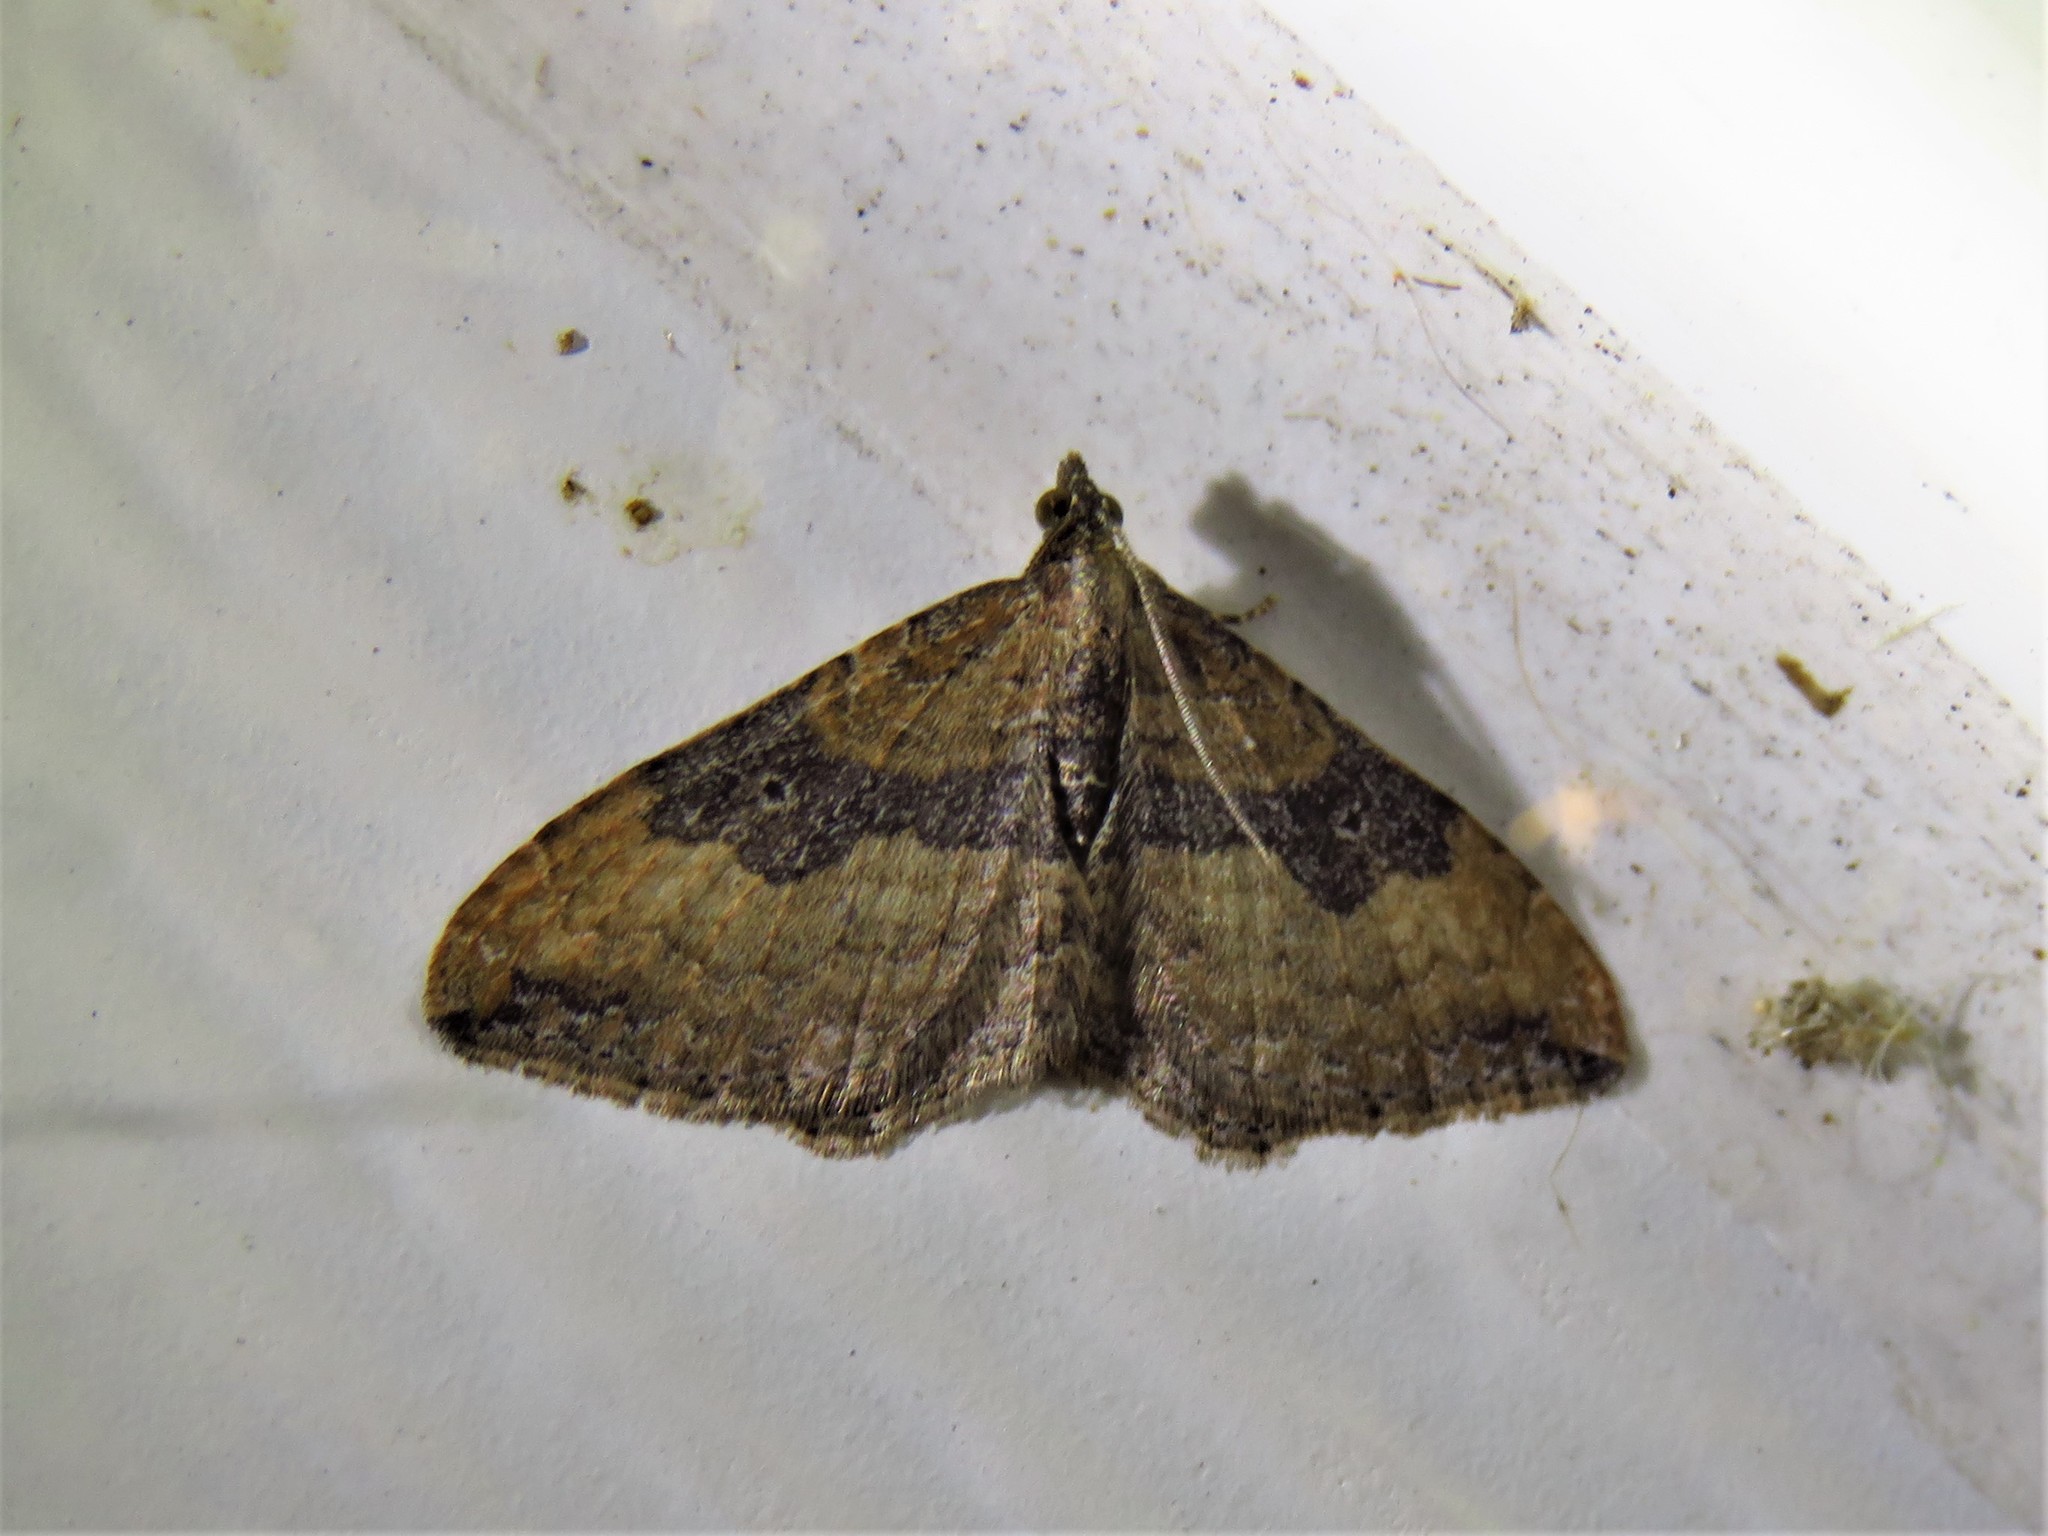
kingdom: Animalia
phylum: Arthropoda
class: Insecta
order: Lepidoptera
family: Geometridae
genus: Orthonama
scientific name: Orthonama obstipata
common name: The gem
